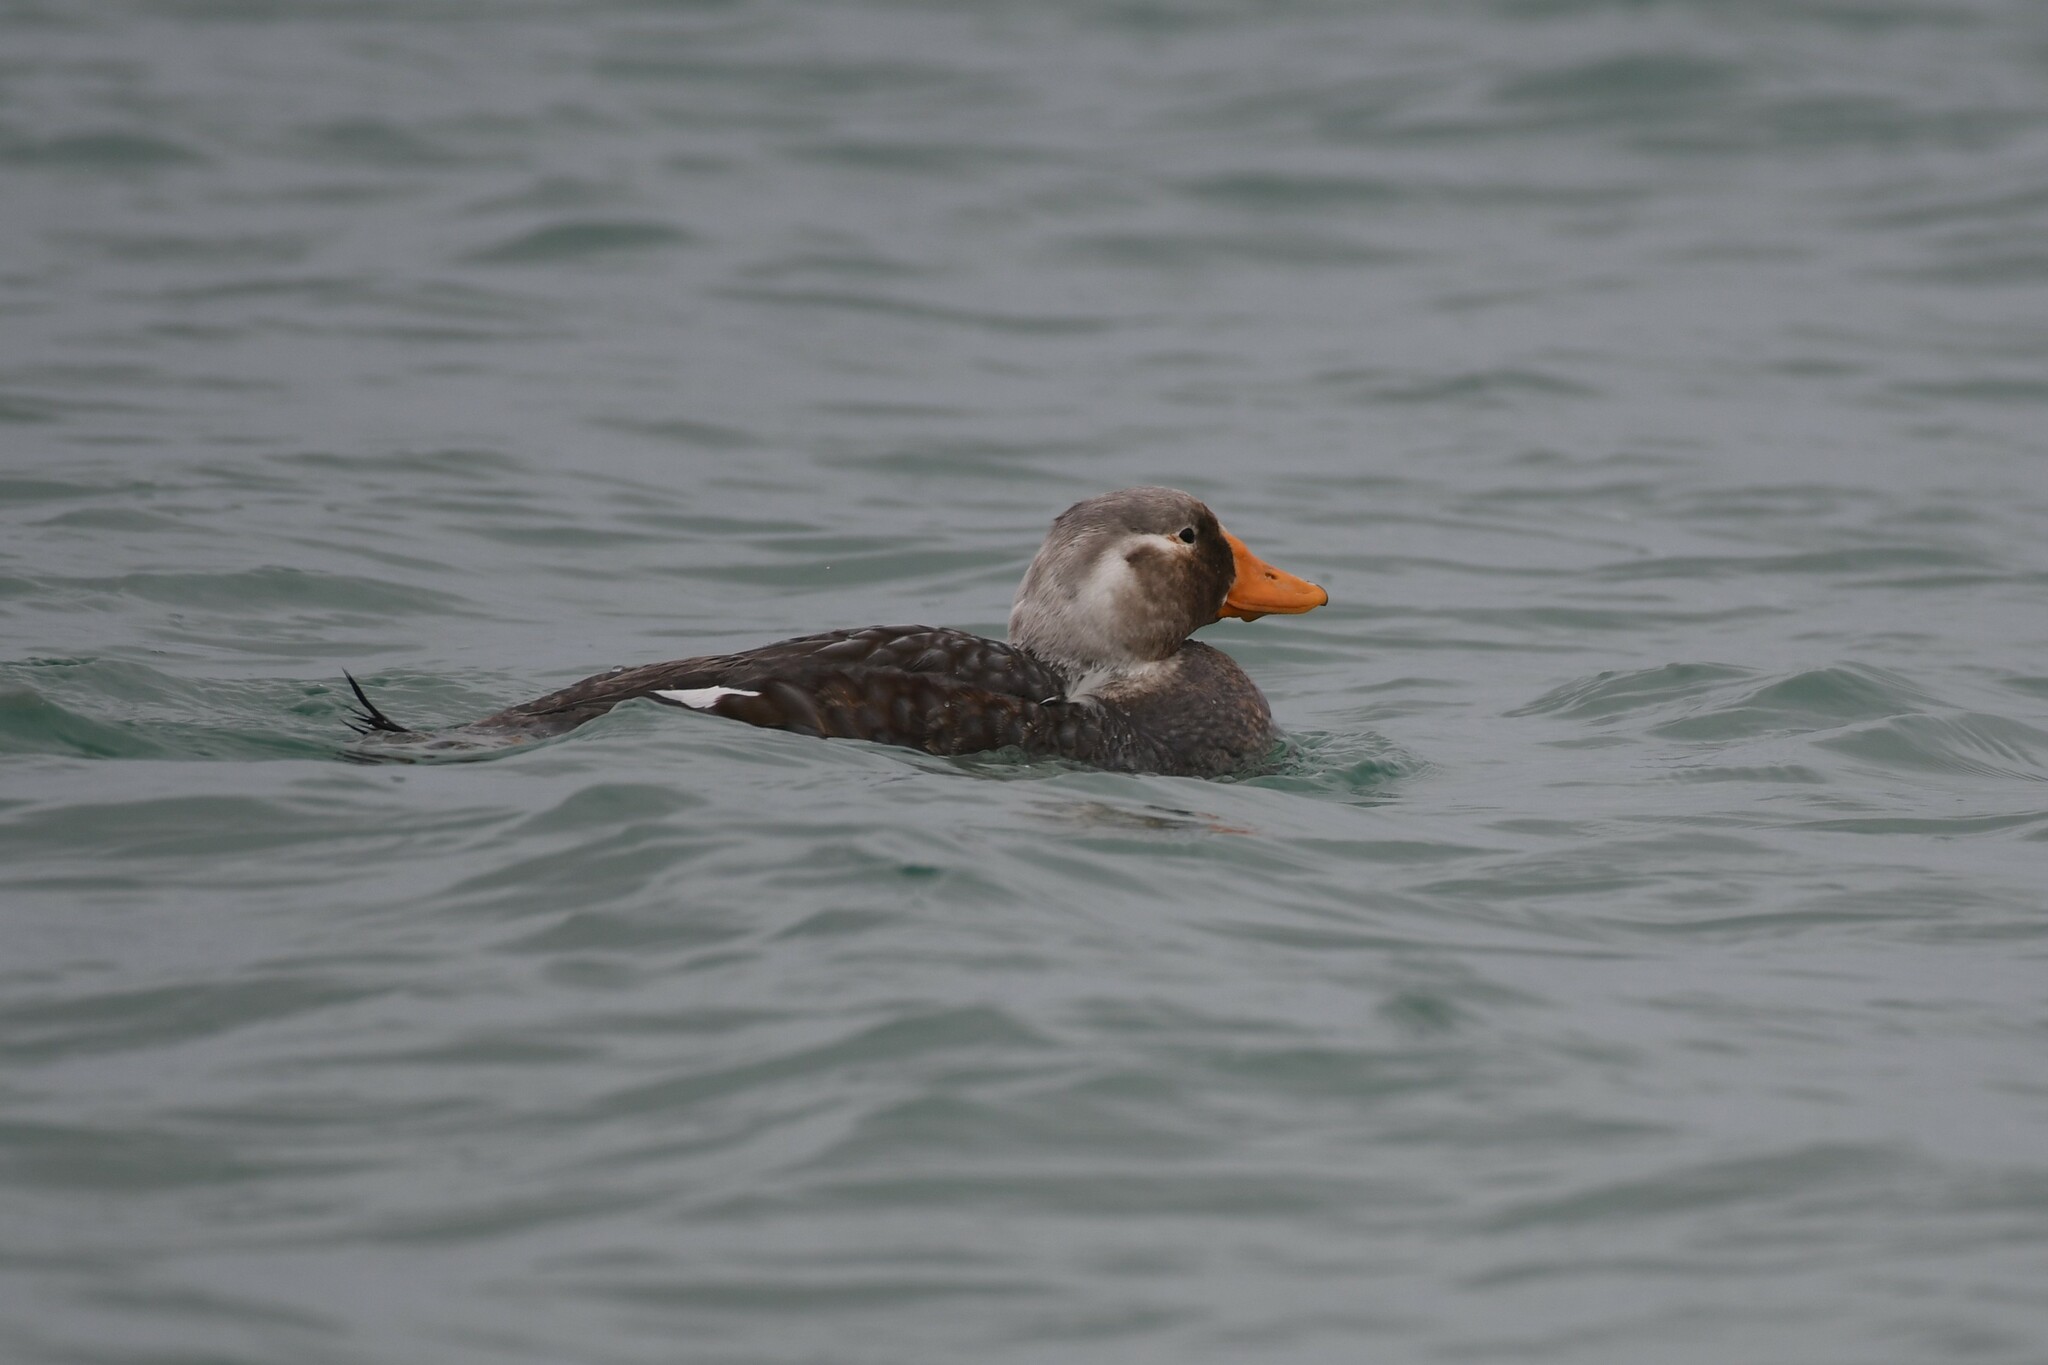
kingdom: Animalia
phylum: Chordata
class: Aves
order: Anseriformes
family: Anatidae
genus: Tachyeres
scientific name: Tachyeres brachypterus
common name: Falkland steamer duck
